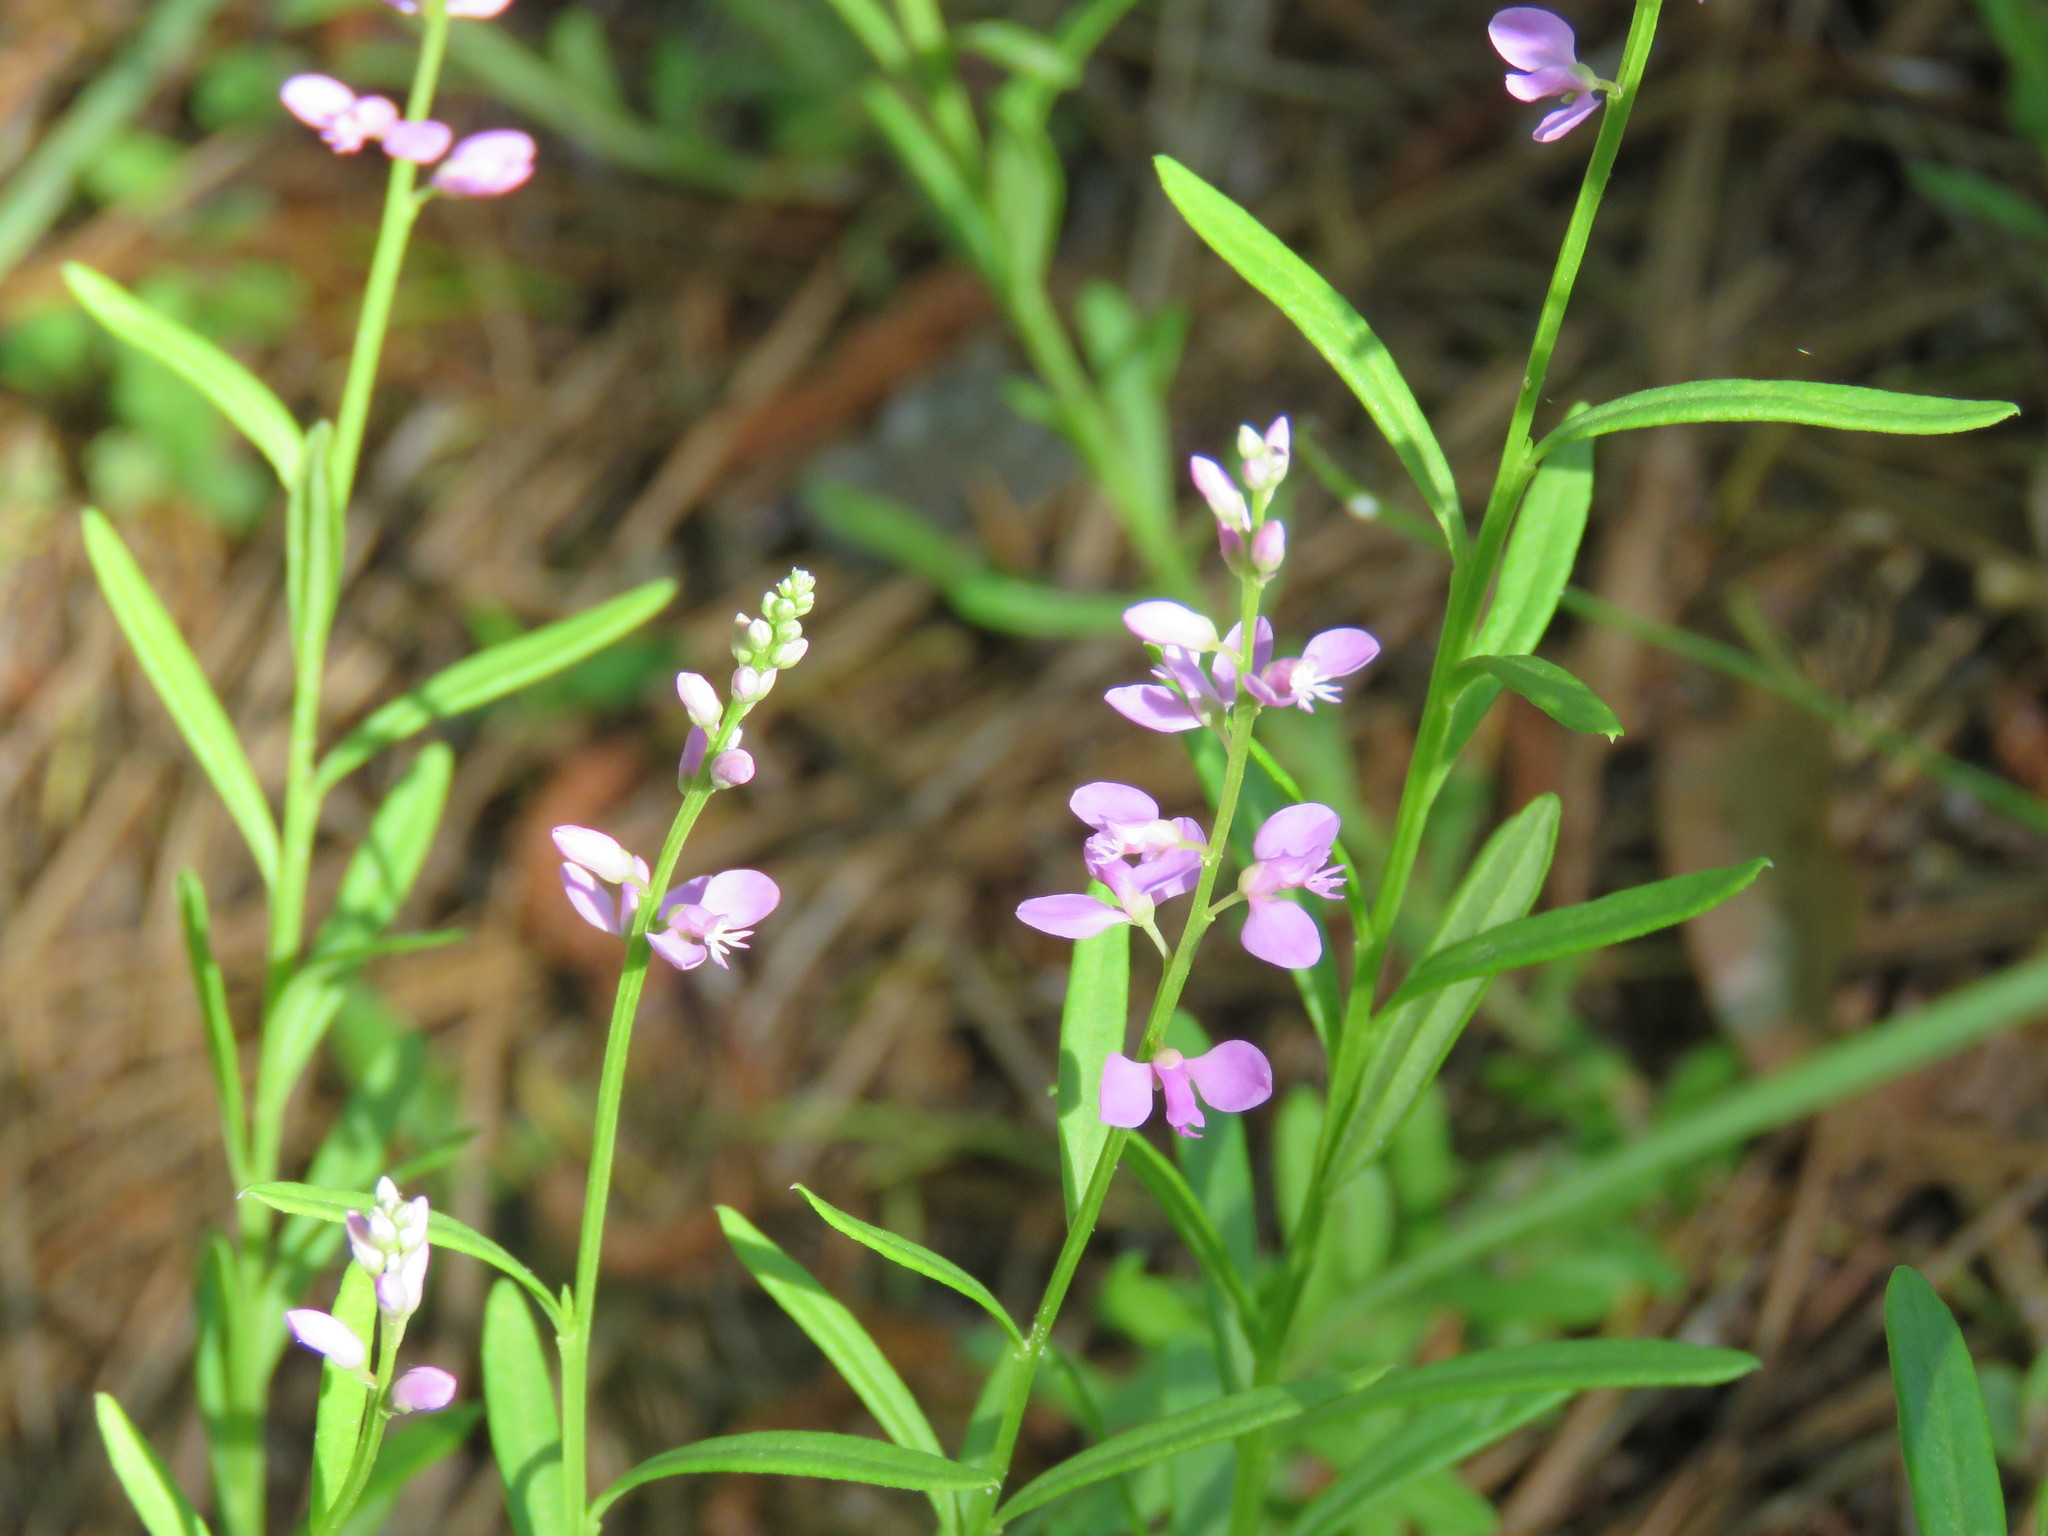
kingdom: Plantae
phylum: Tracheophyta
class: Magnoliopsida
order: Fabales
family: Polygalaceae
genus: Polygala
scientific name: Polygala polygama
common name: Bitter milkwort
